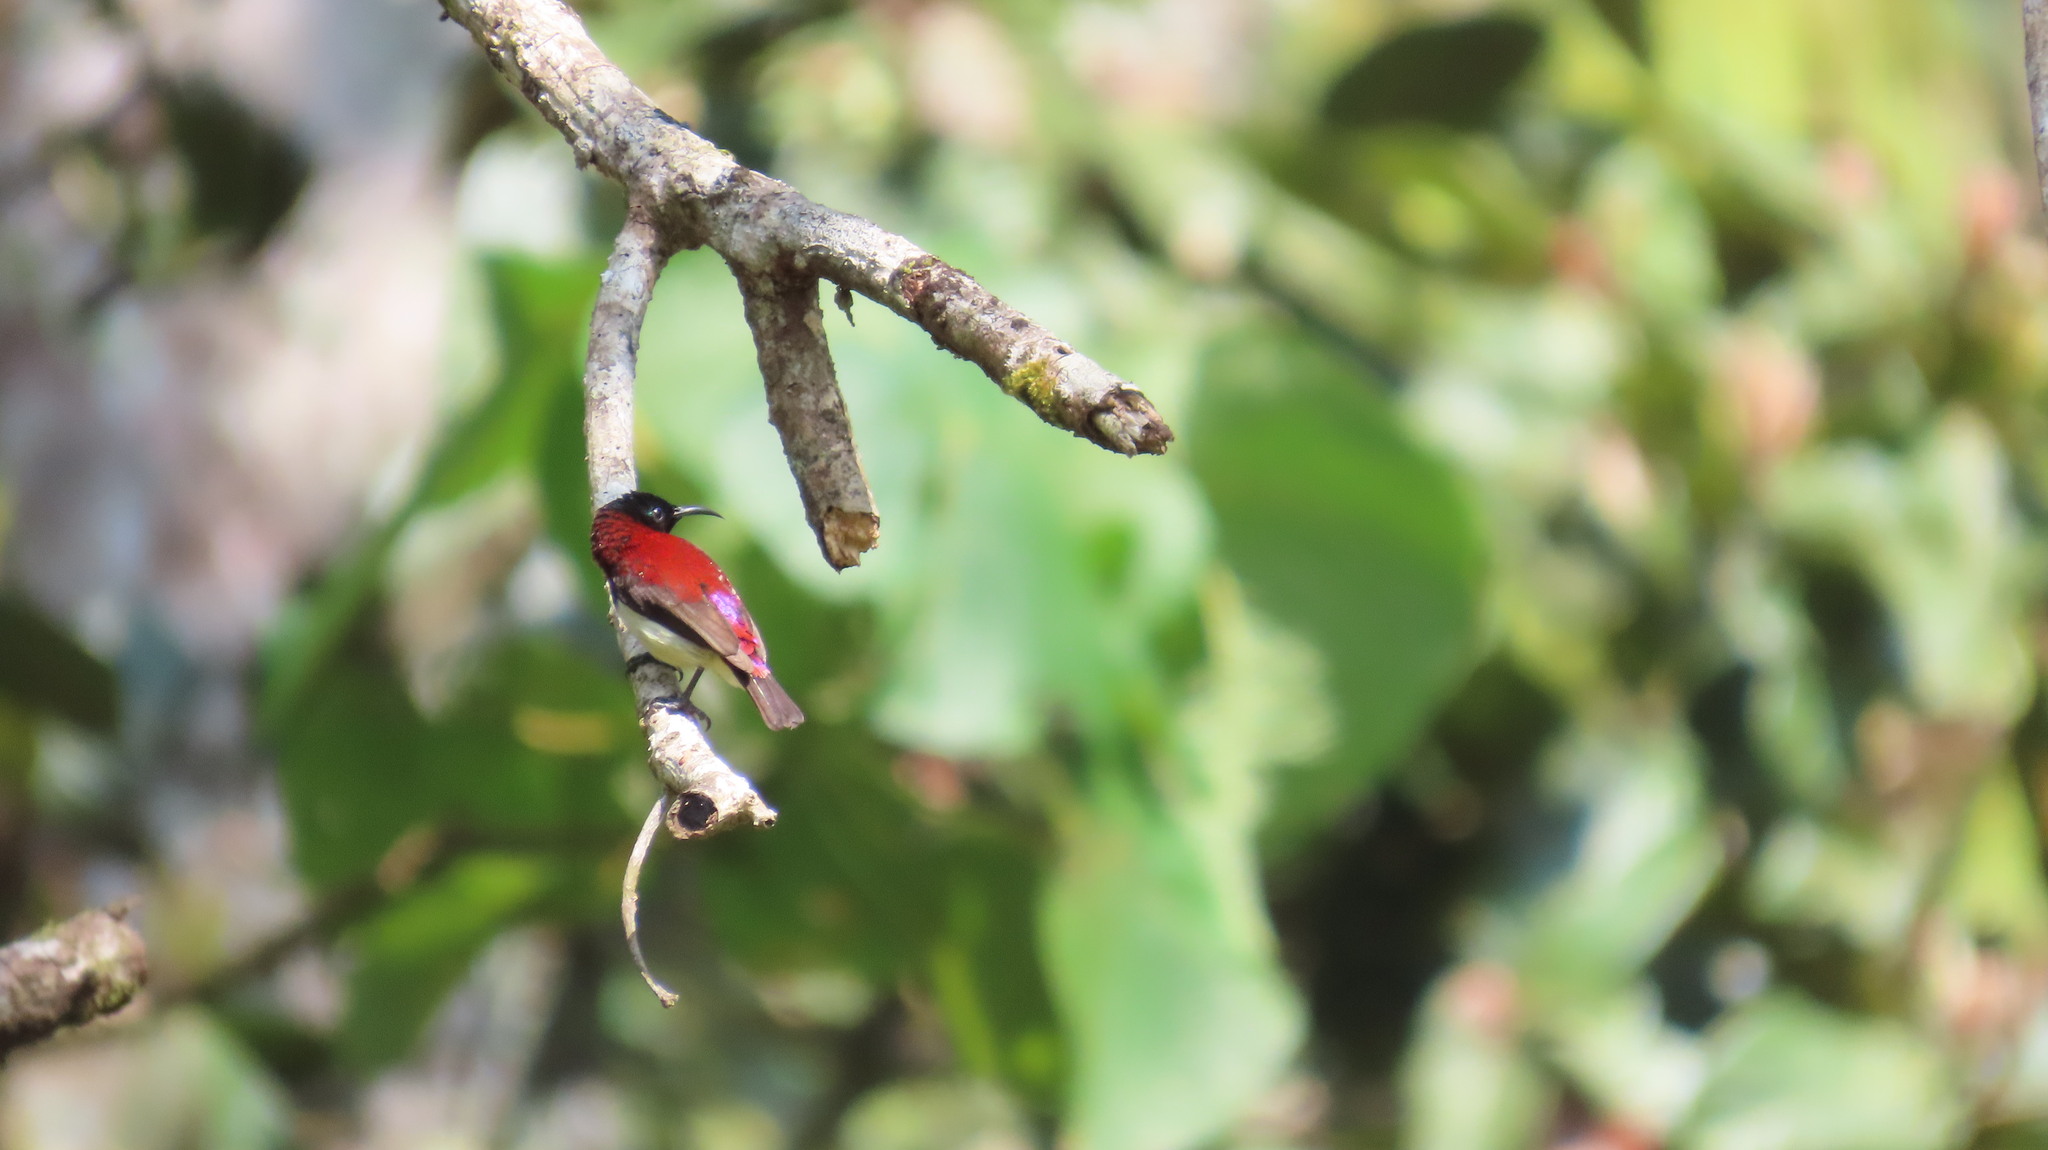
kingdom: Animalia
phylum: Chordata
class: Aves
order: Passeriformes
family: Nectariniidae
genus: Leptocoma
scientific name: Leptocoma minima
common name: Crimson-backed sunbird
